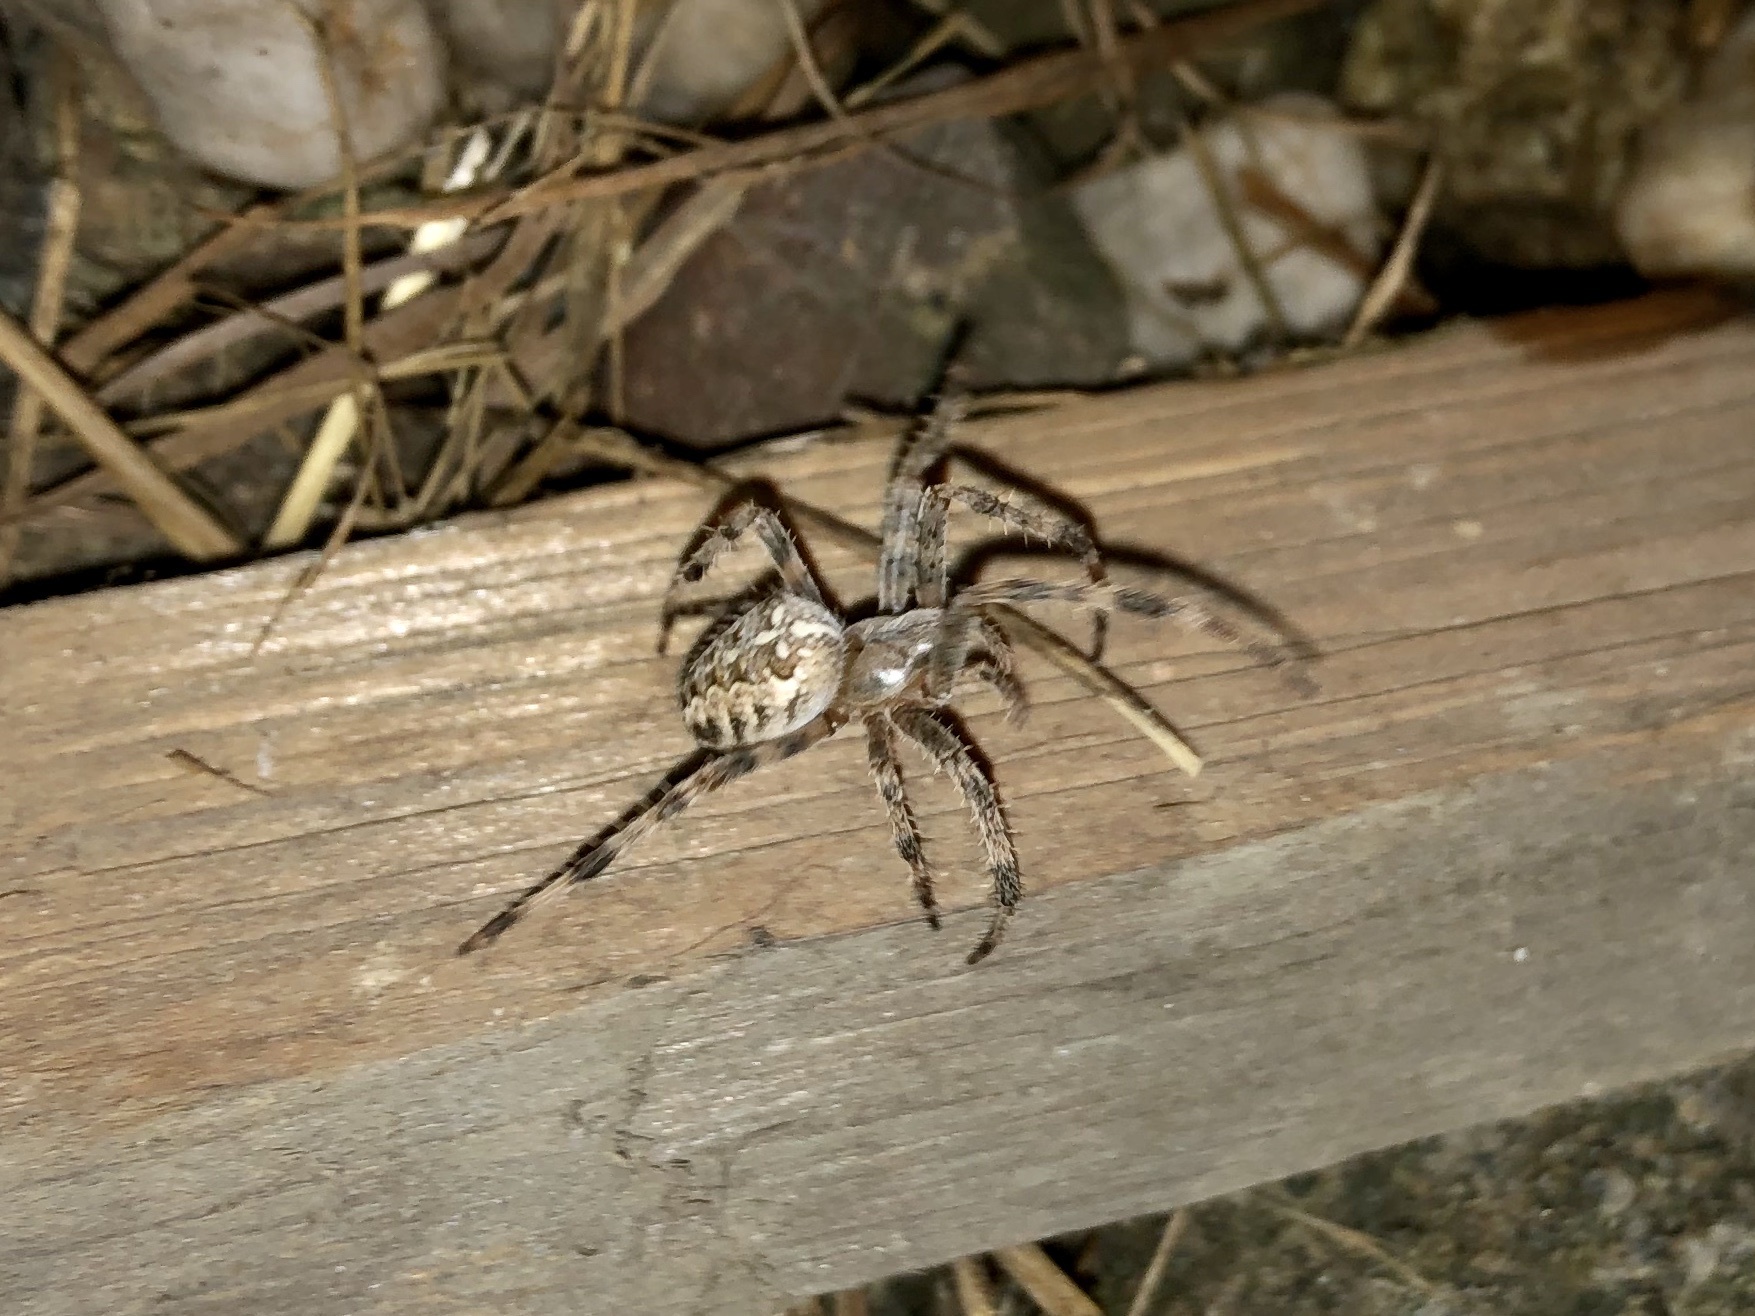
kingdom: Animalia
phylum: Arthropoda
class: Arachnida
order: Araneae
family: Araneidae
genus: Araneus
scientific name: Araneus diadematus
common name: Cross orbweaver
